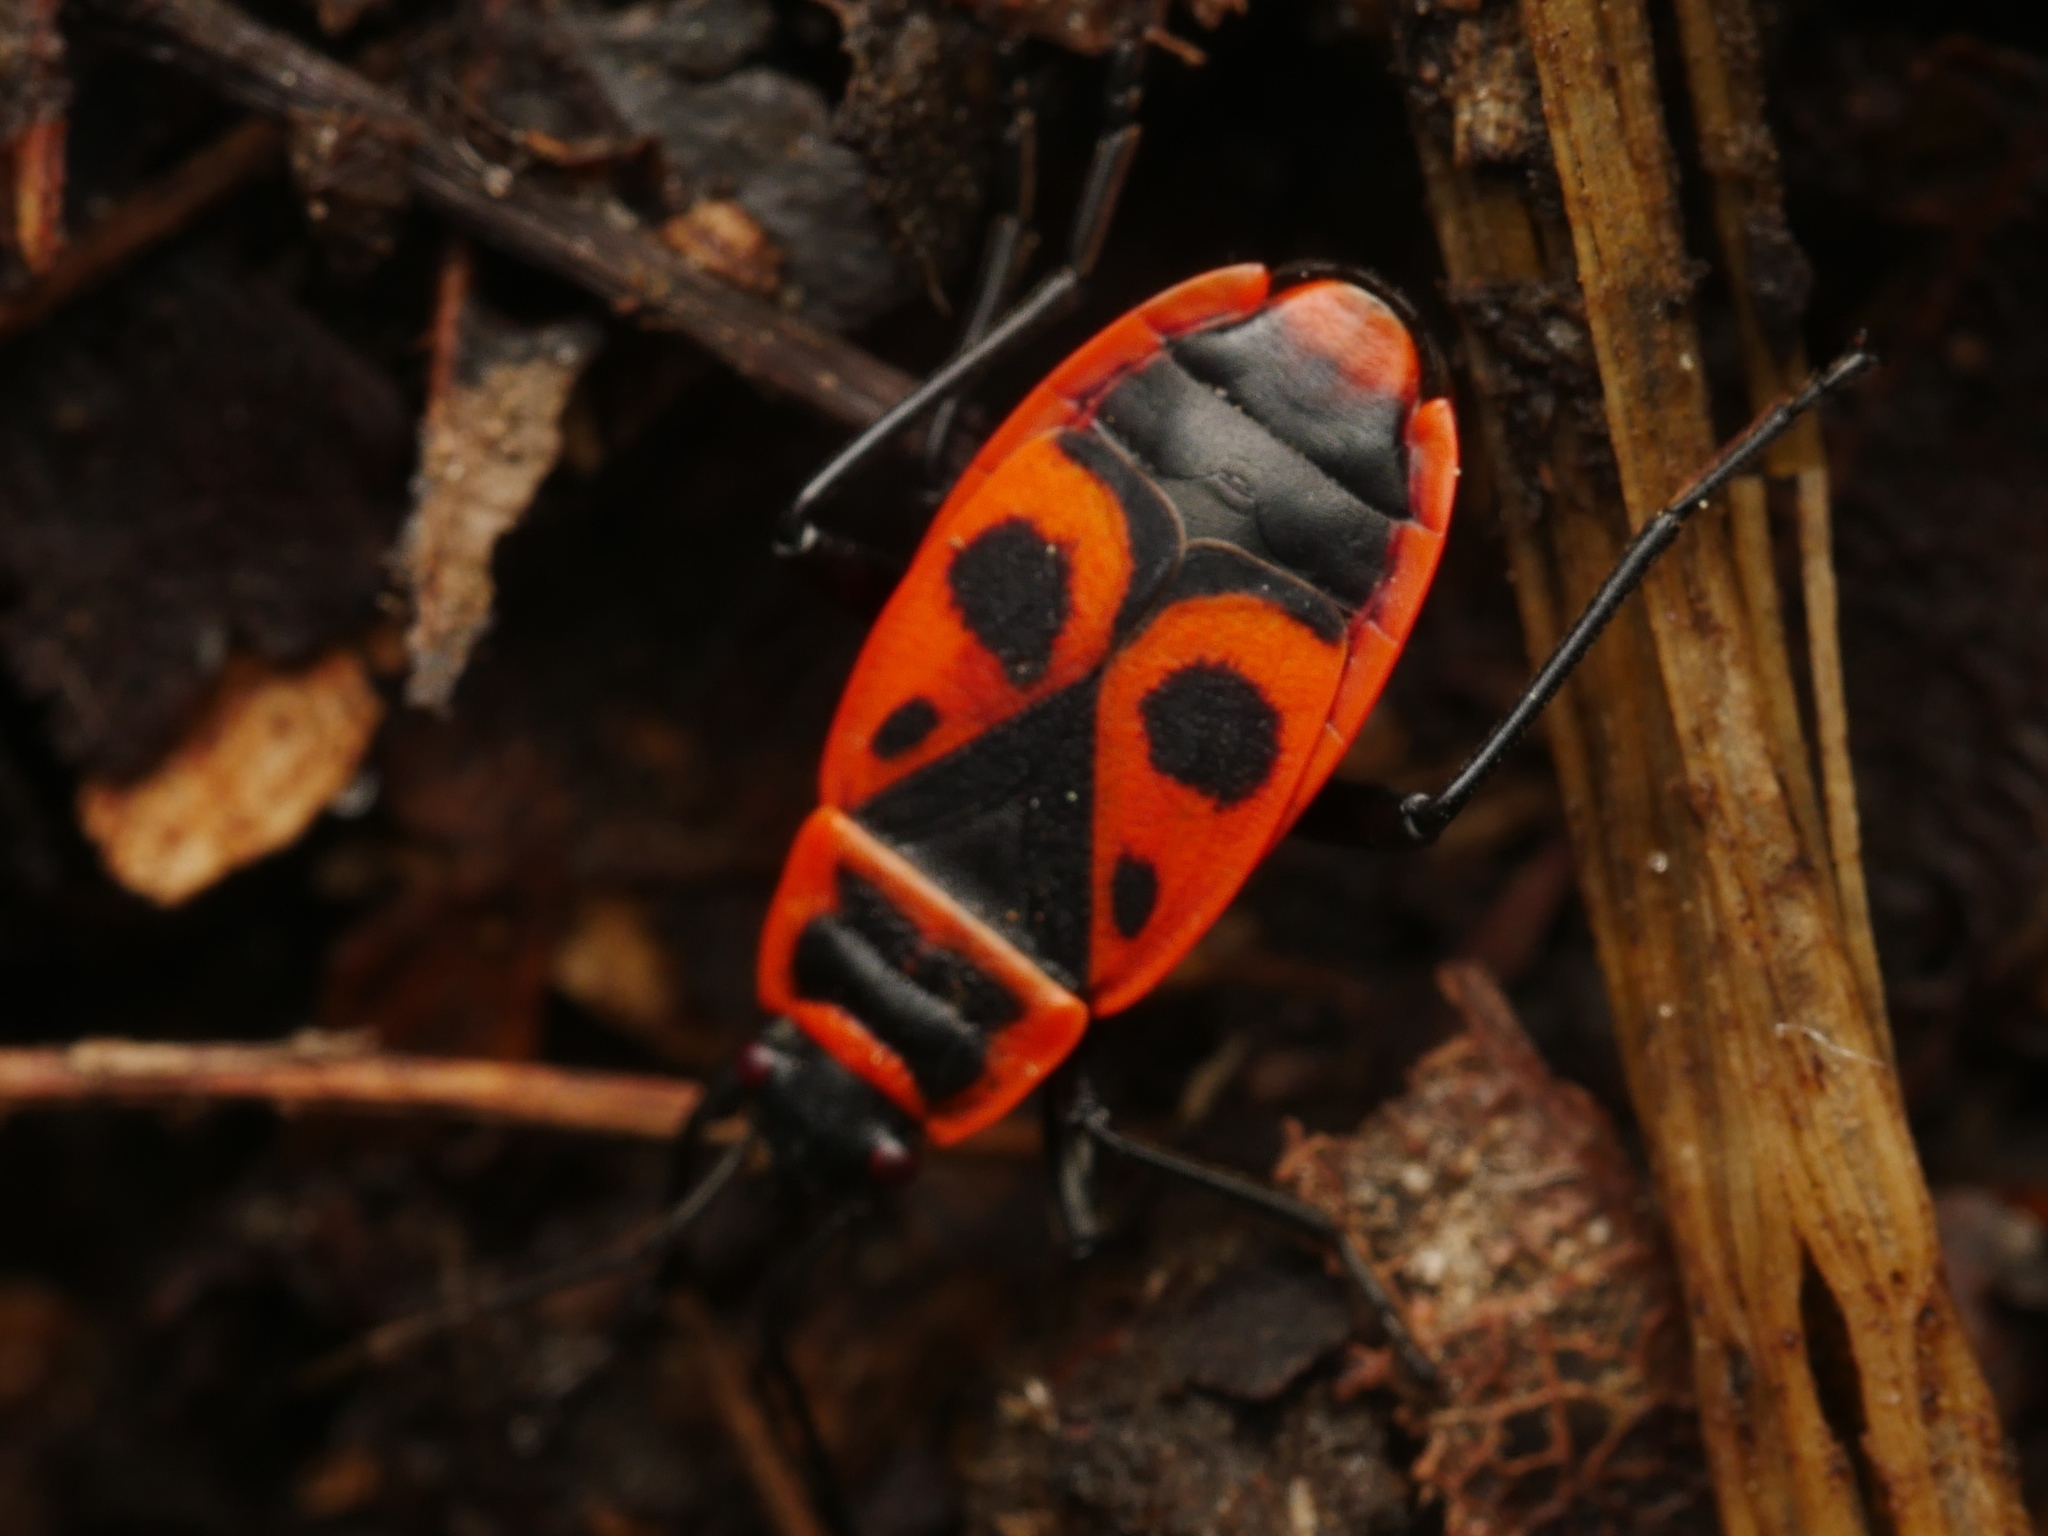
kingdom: Animalia
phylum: Arthropoda
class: Insecta
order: Hemiptera
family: Pyrrhocoridae
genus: Pyrrhocoris
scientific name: Pyrrhocoris apterus
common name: Firebug
